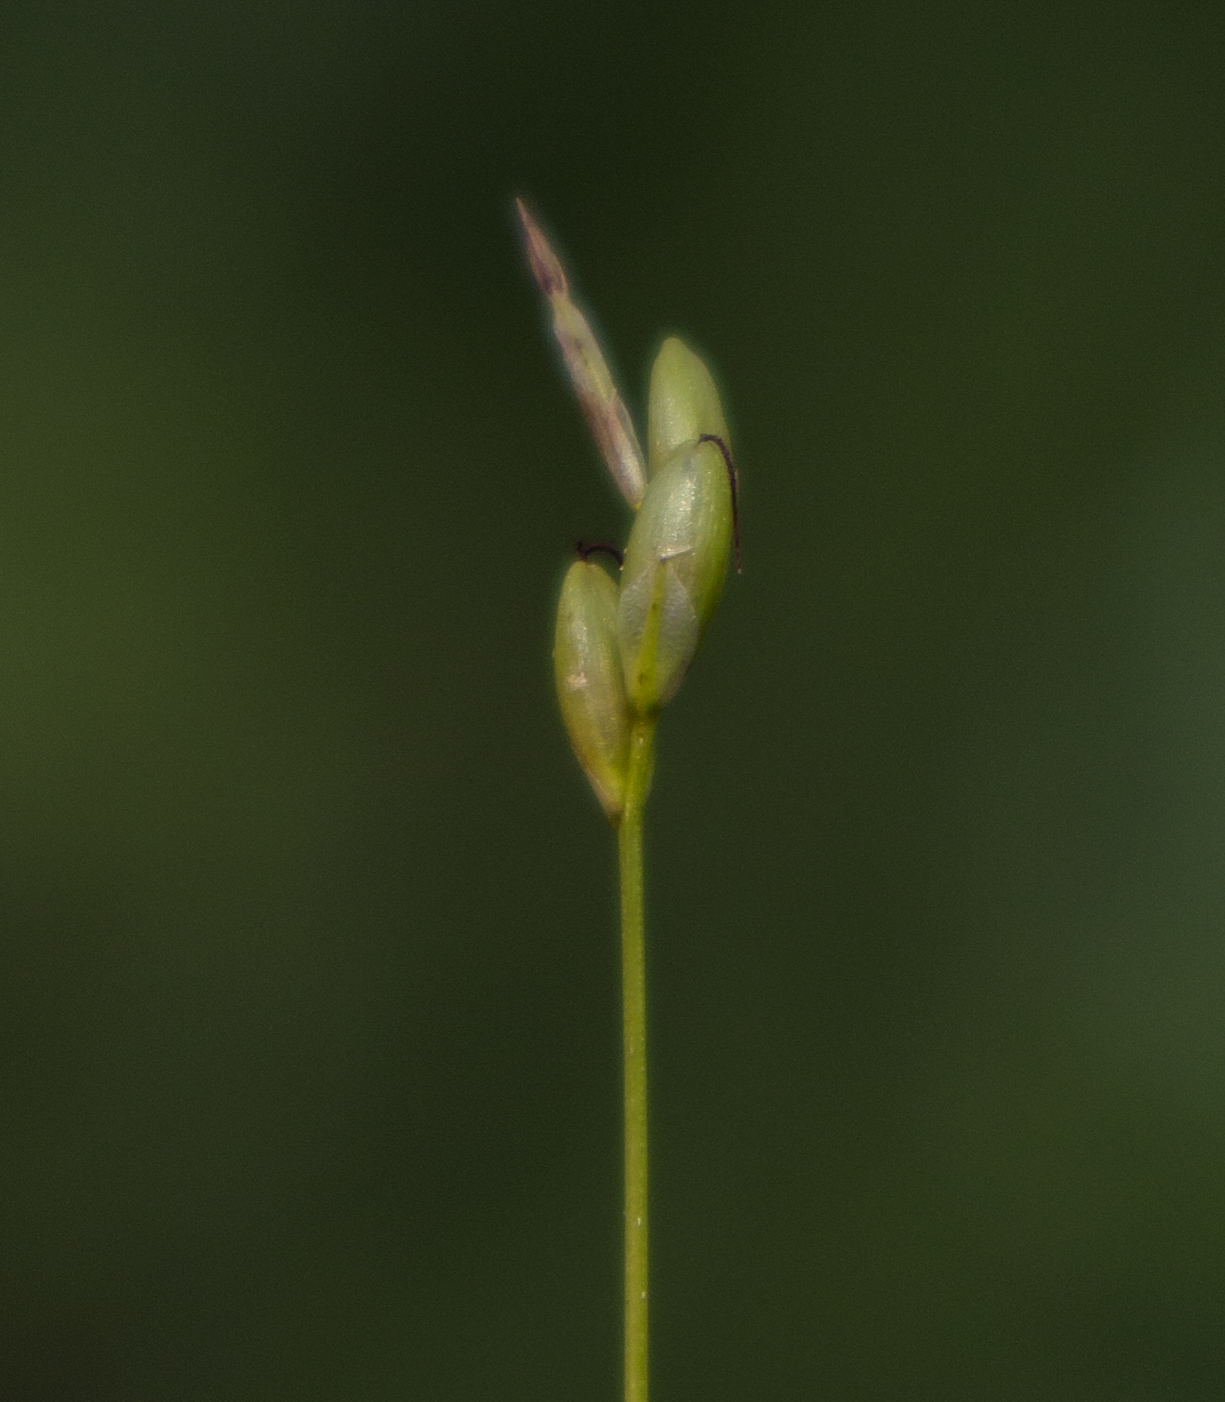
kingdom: Plantae
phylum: Tracheophyta
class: Liliopsida
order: Poales
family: Cyperaceae
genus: Carex
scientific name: Carex leptalea
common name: Bristly-stalked sedge
